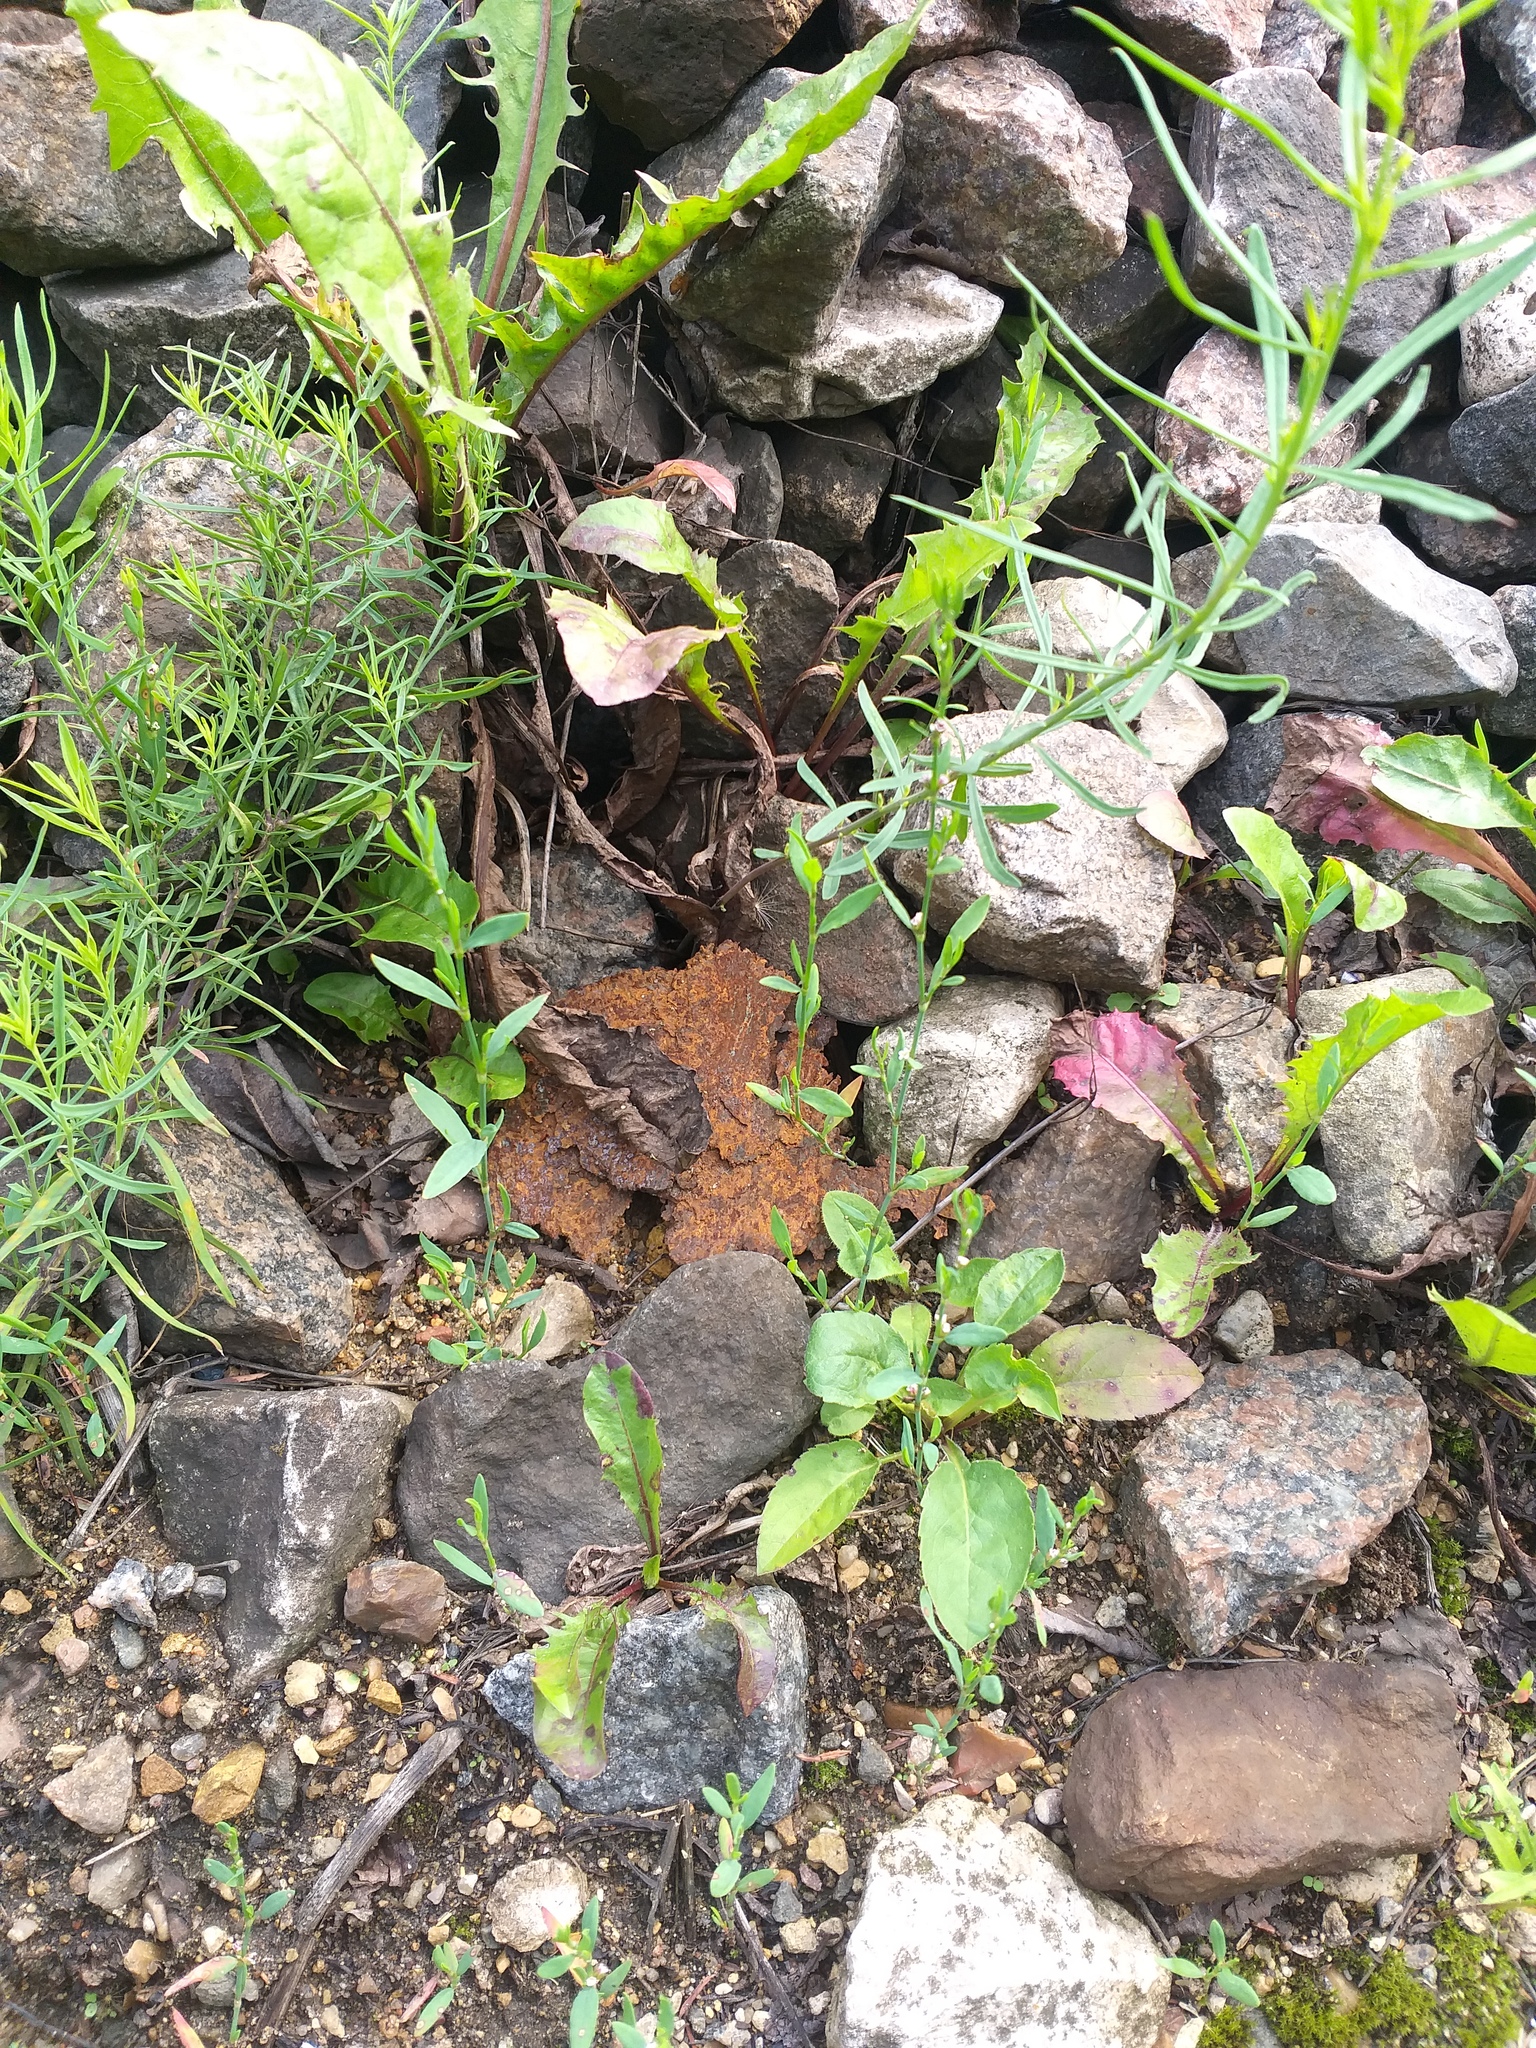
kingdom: Plantae
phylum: Tracheophyta
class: Magnoliopsida
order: Caryophyllales
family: Polygonaceae
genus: Polygonum
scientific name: Polygonum
